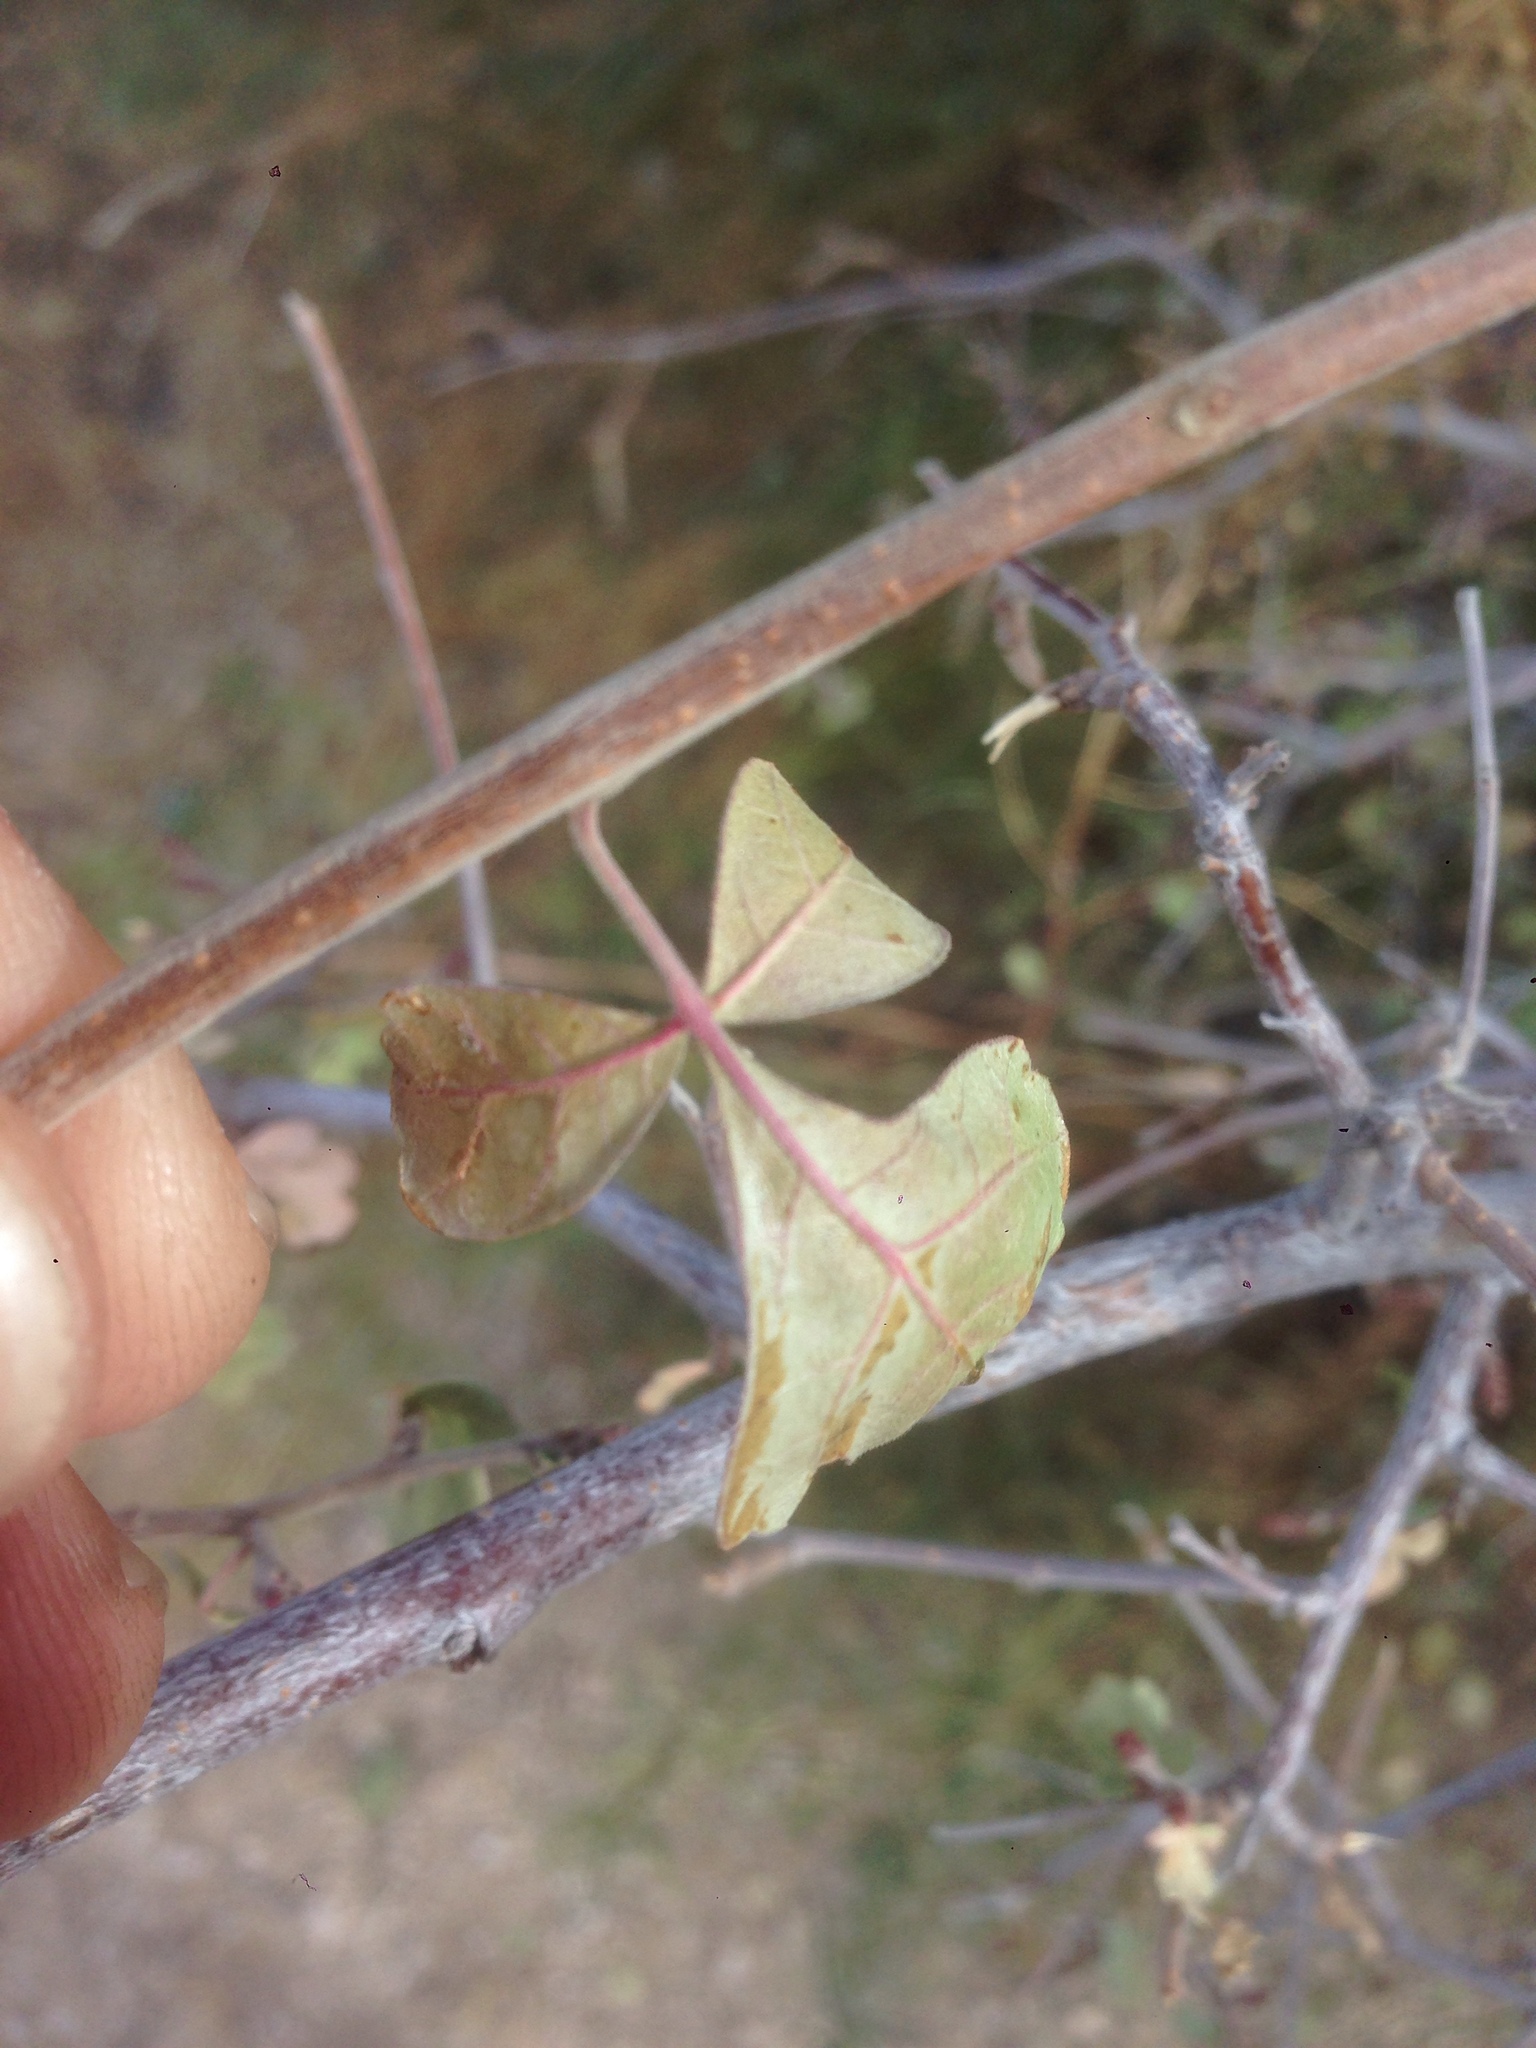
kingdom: Plantae
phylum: Tracheophyta
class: Magnoliopsida
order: Sapindales
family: Anacardiaceae
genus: Rhus
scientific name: Rhus aromatica
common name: Aromatic sumac
